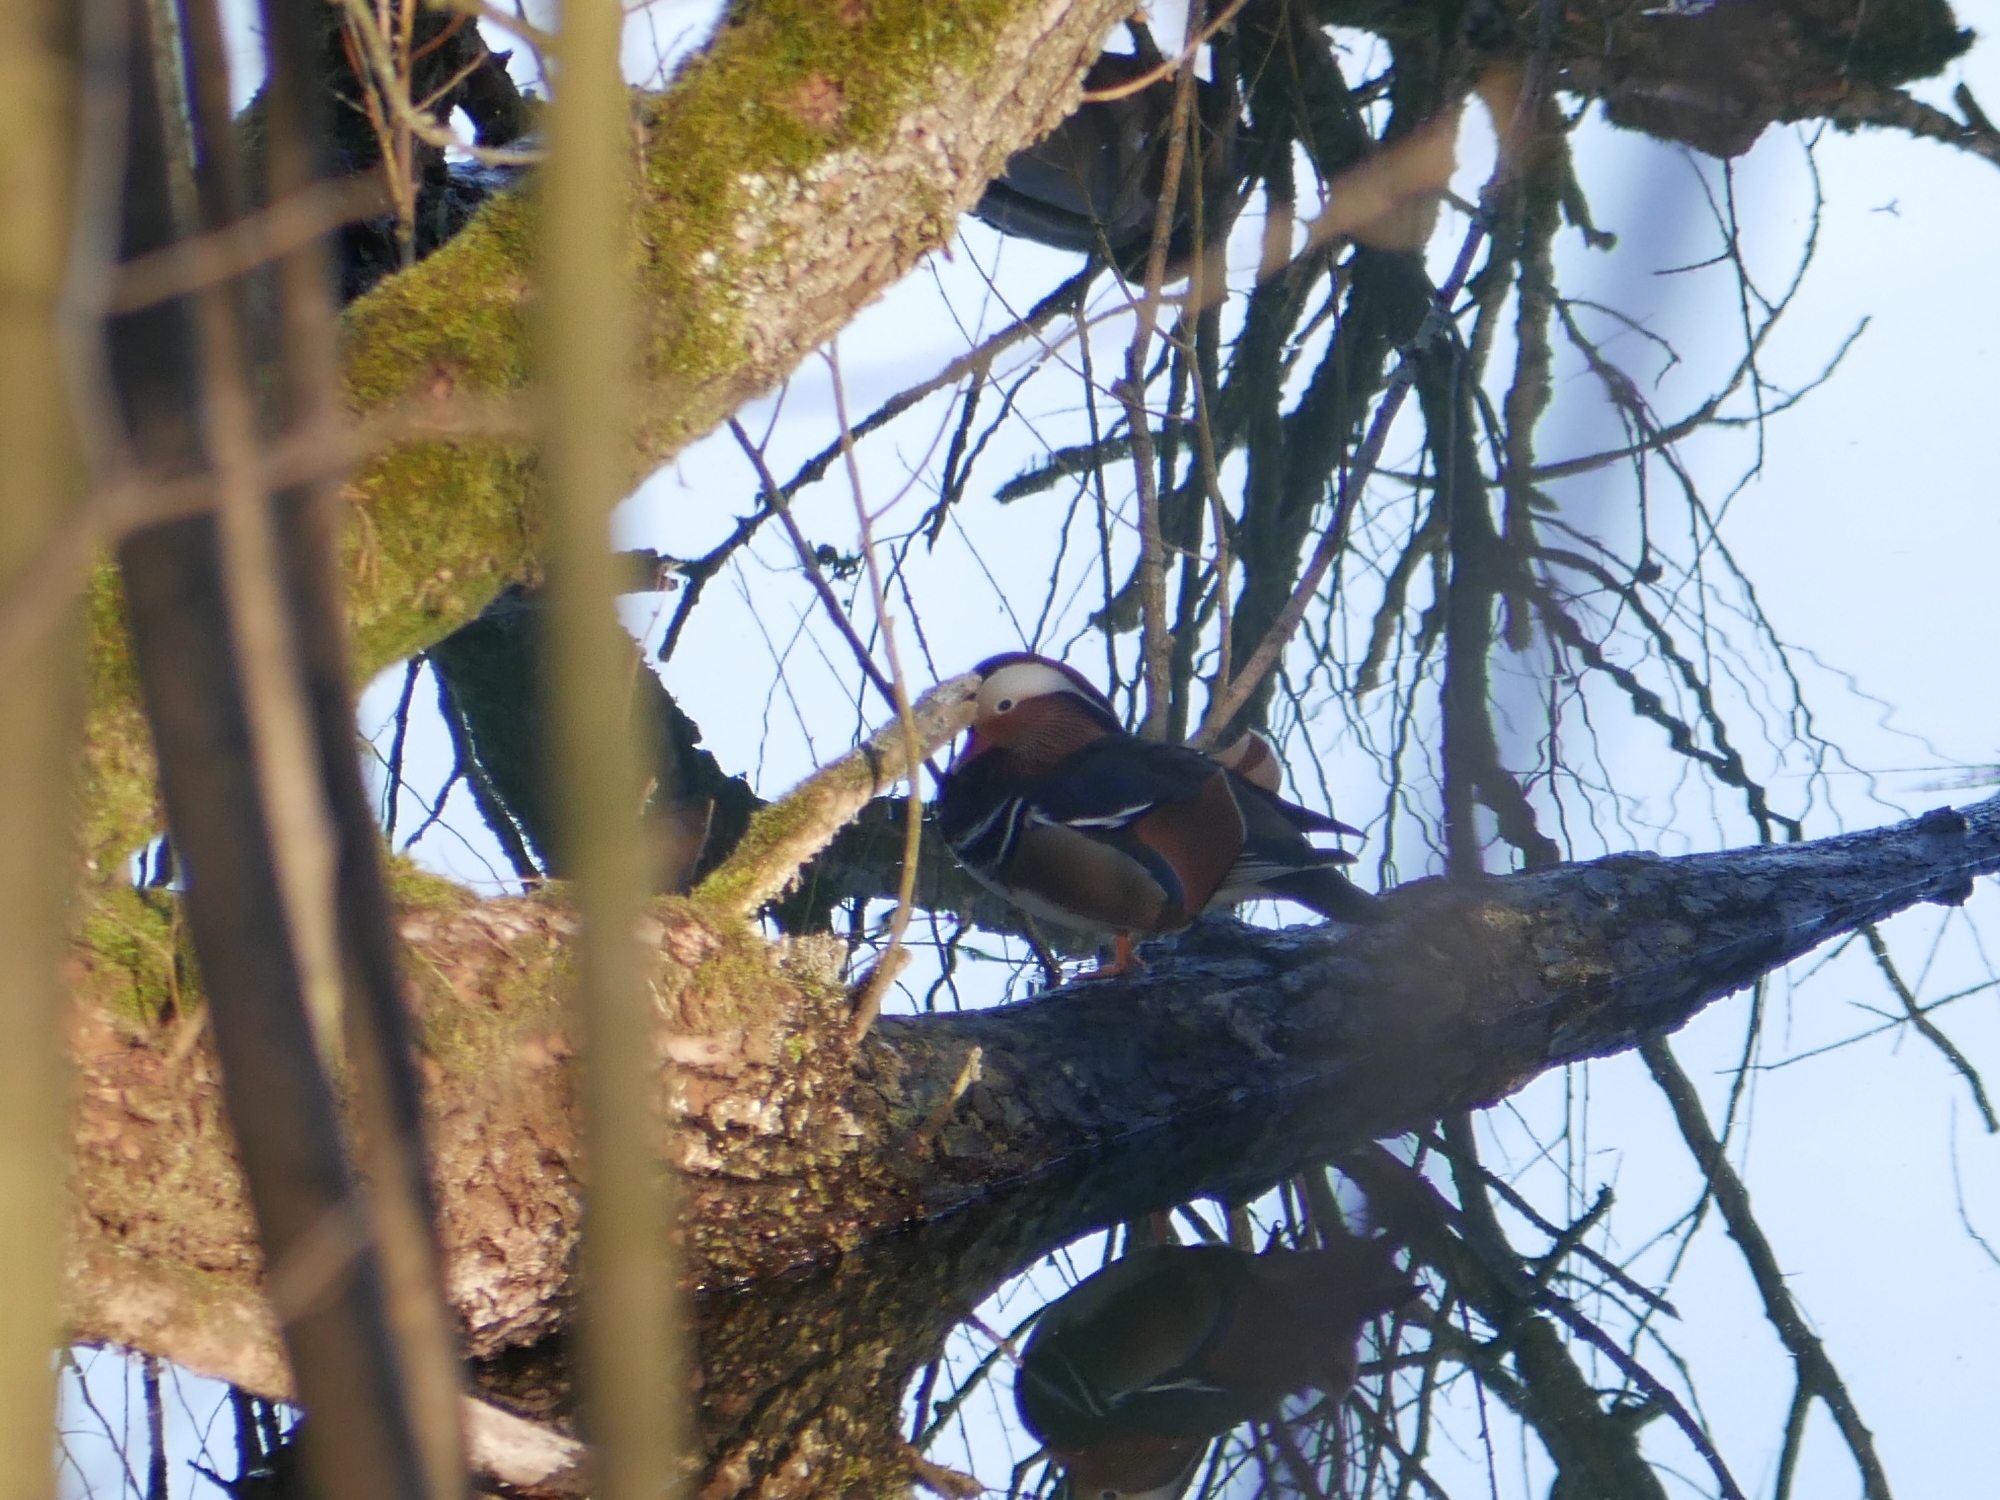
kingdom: Animalia
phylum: Chordata
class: Aves
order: Anseriformes
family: Anatidae
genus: Aix
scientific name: Aix galericulata
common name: Mandarin duck
